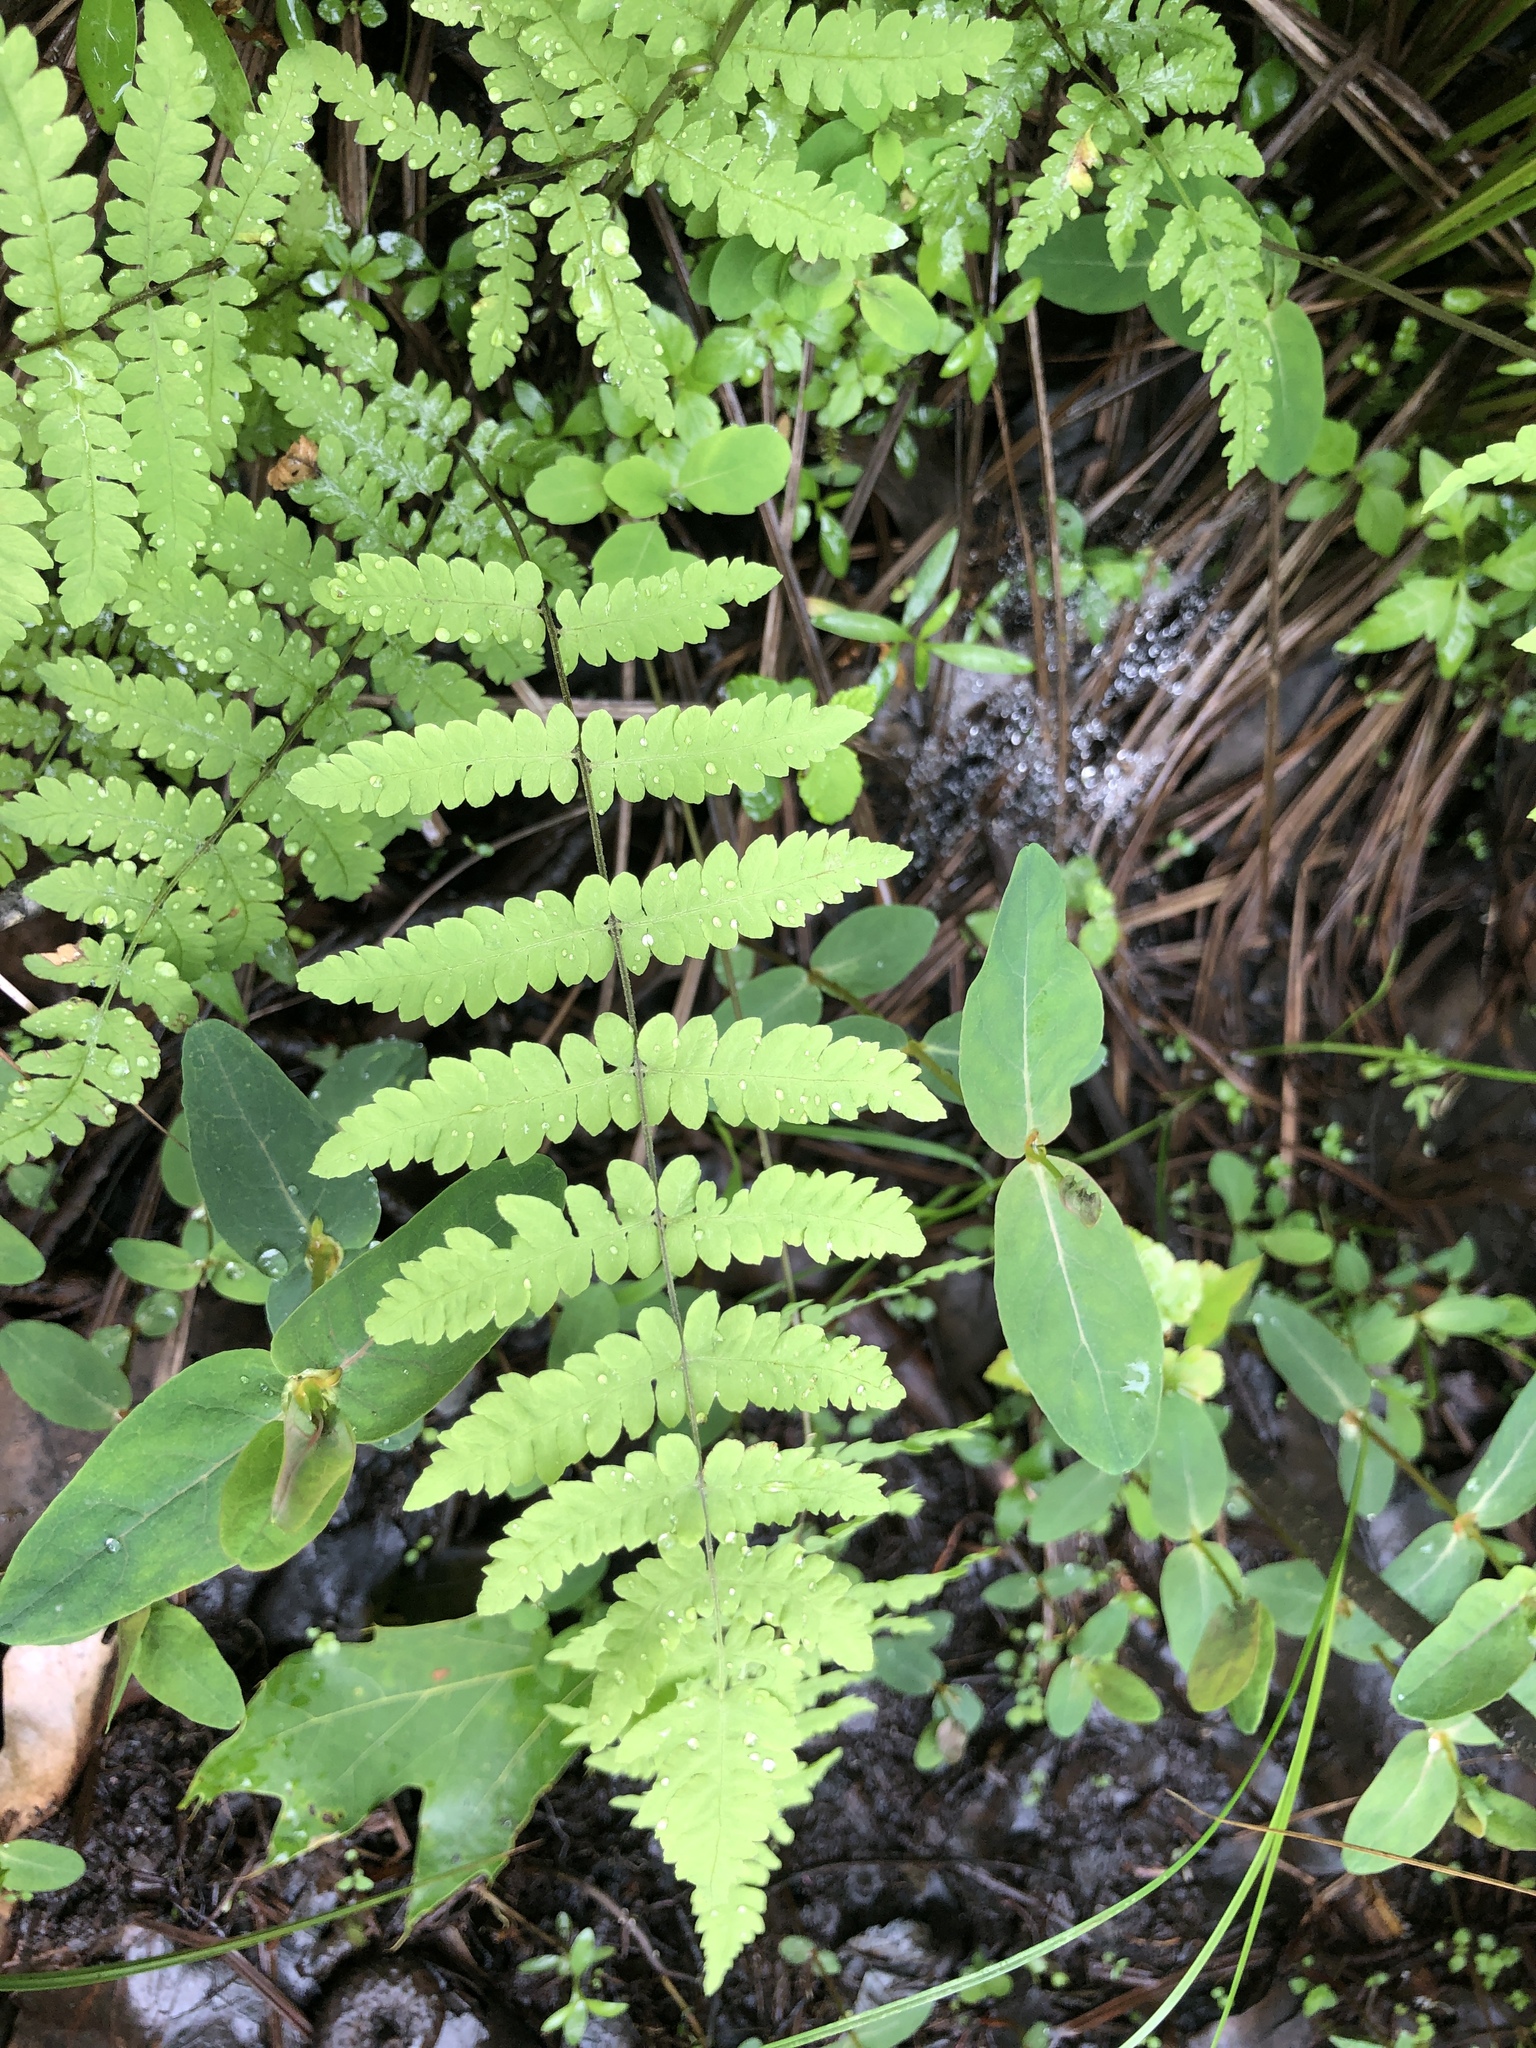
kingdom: Plantae
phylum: Tracheophyta
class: Polypodiopsida
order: Polypodiales
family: Thelypteridaceae
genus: Thelypteris
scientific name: Thelypteris palustris
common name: Marsh fern
